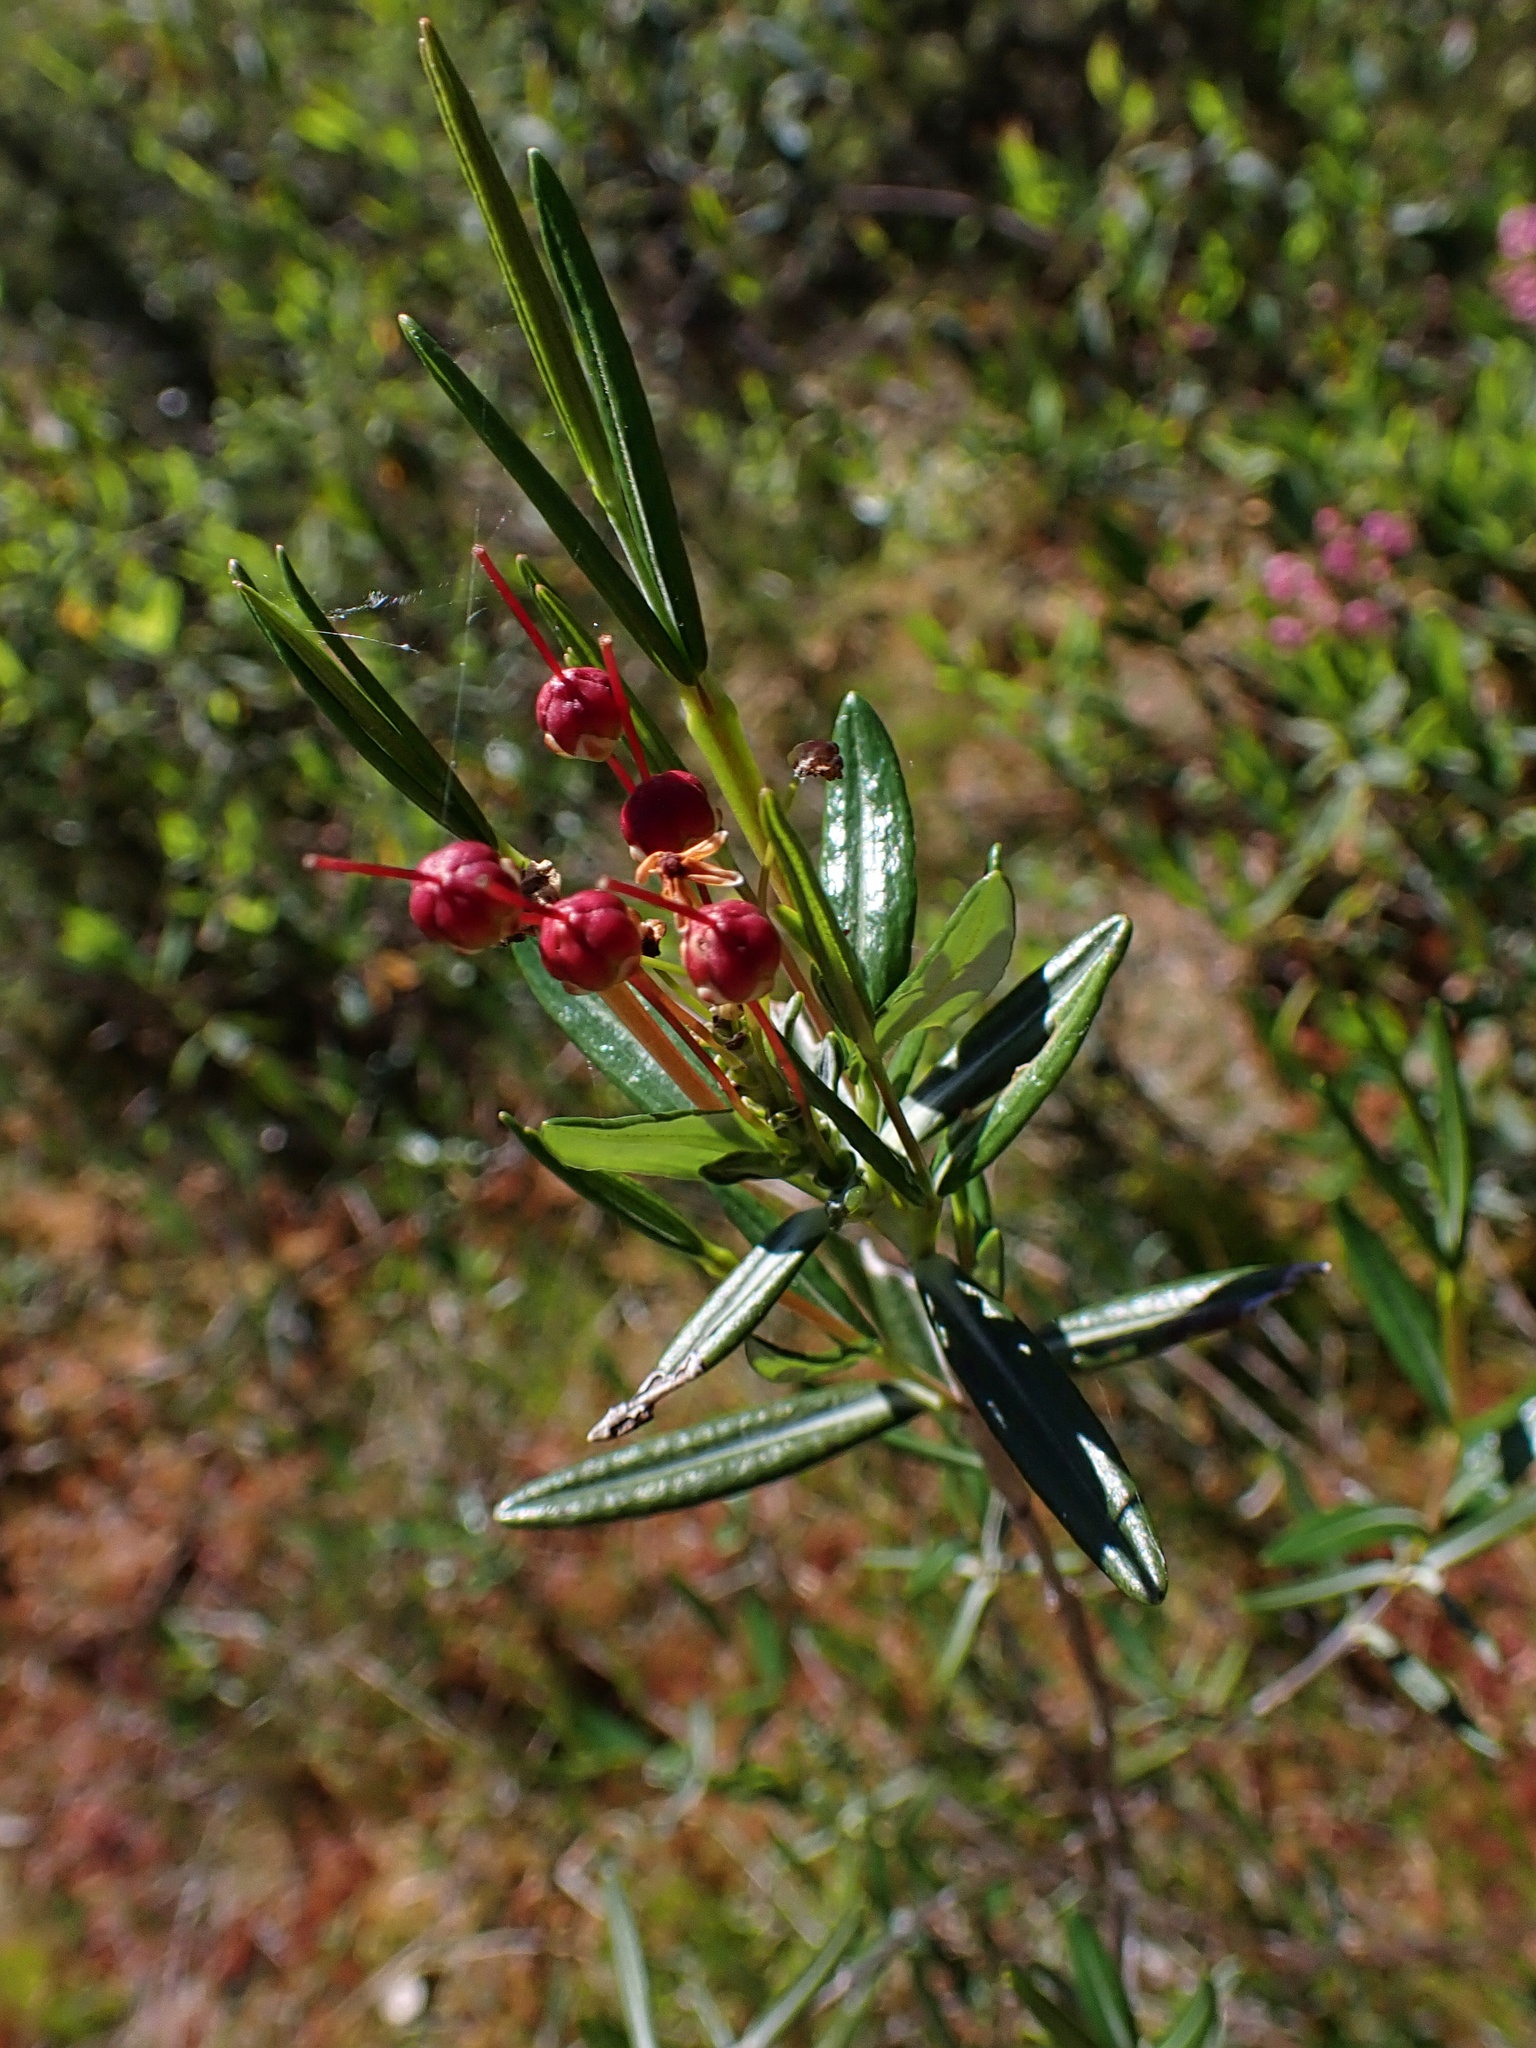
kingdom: Plantae
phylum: Tracheophyta
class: Magnoliopsida
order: Ericales
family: Ericaceae
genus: Kalmia
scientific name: Kalmia polifolia
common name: Bog-laurel
